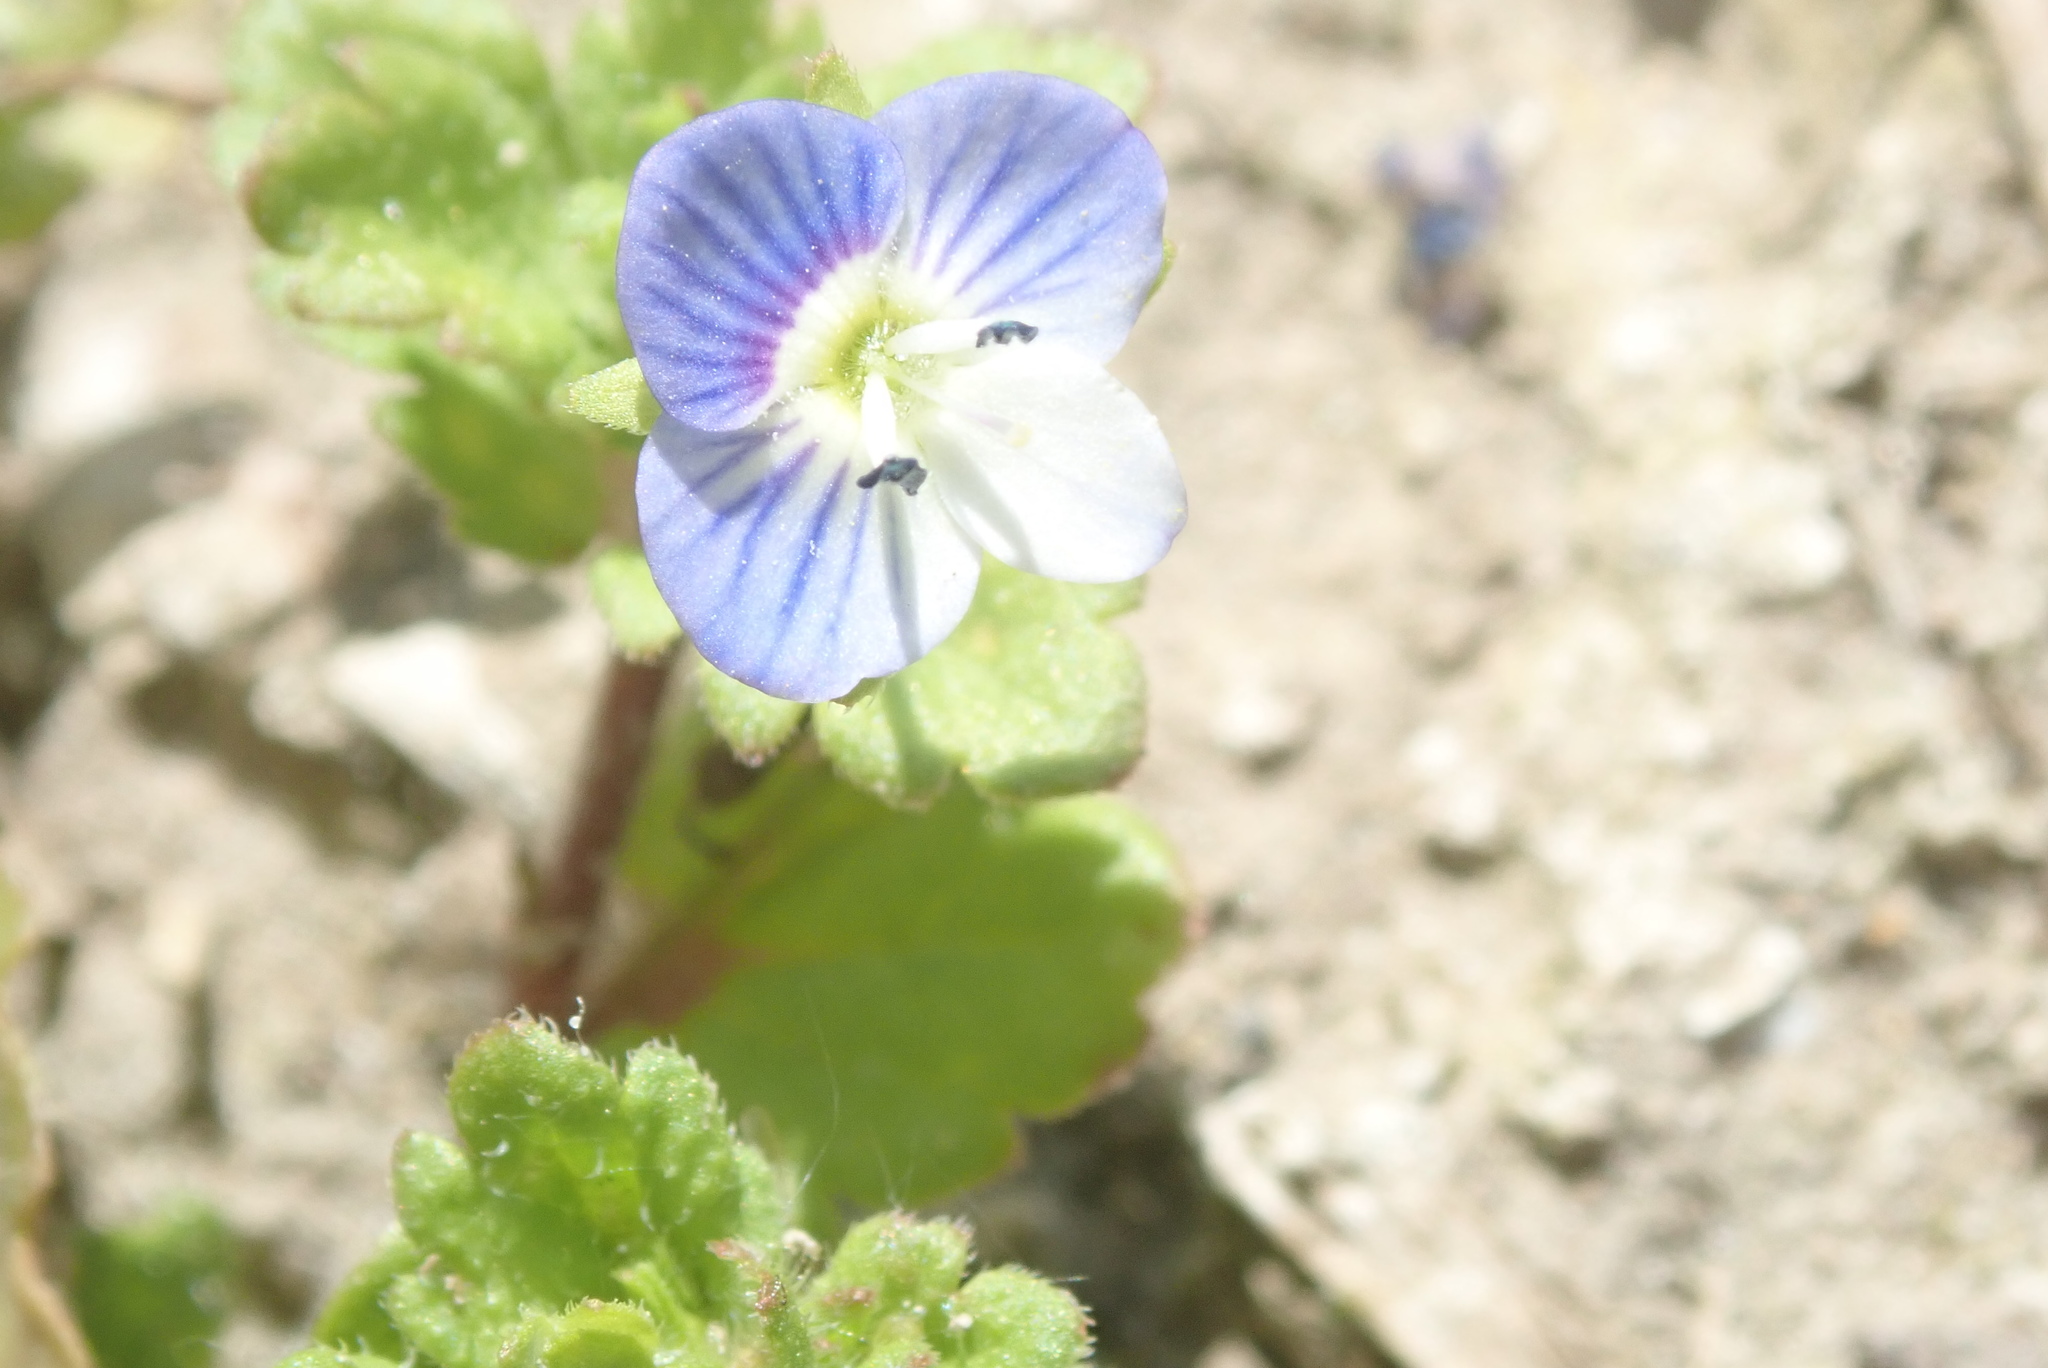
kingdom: Plantae
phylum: Tracheophyta
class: Magnoliopsida
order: Lamiales
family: Plantaginaceae
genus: Veronica
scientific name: Veronica persica
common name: Common field-speedwell
